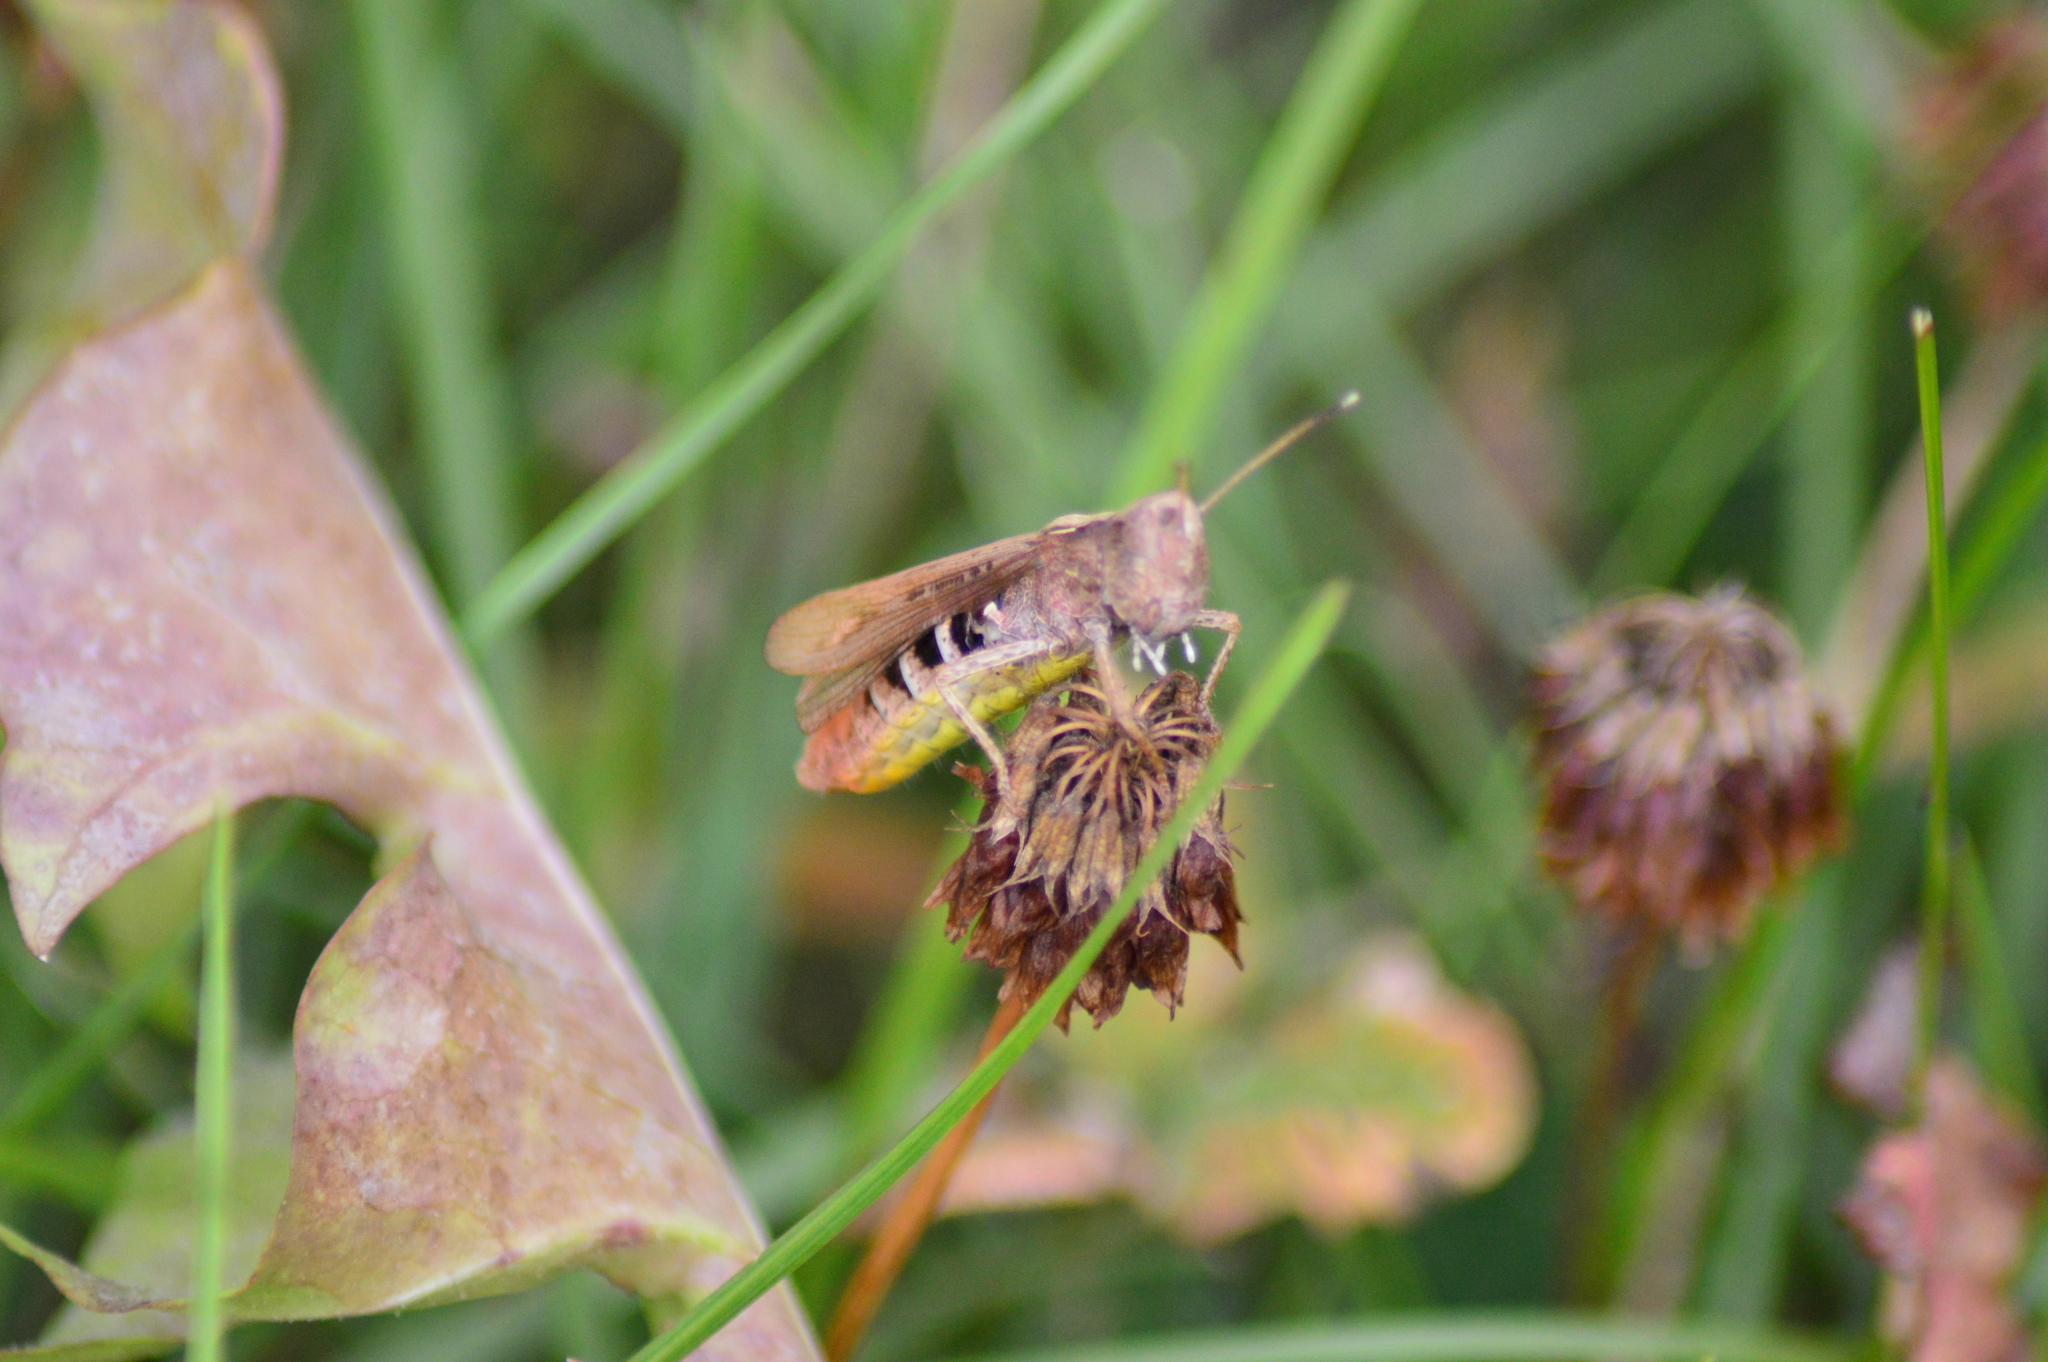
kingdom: Animalia
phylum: Arthropoda
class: Insecta
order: Orthoptera
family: Acrididae
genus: Gomphocerippus
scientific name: Gomphocerippus rufus
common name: Rufous grasshopper
